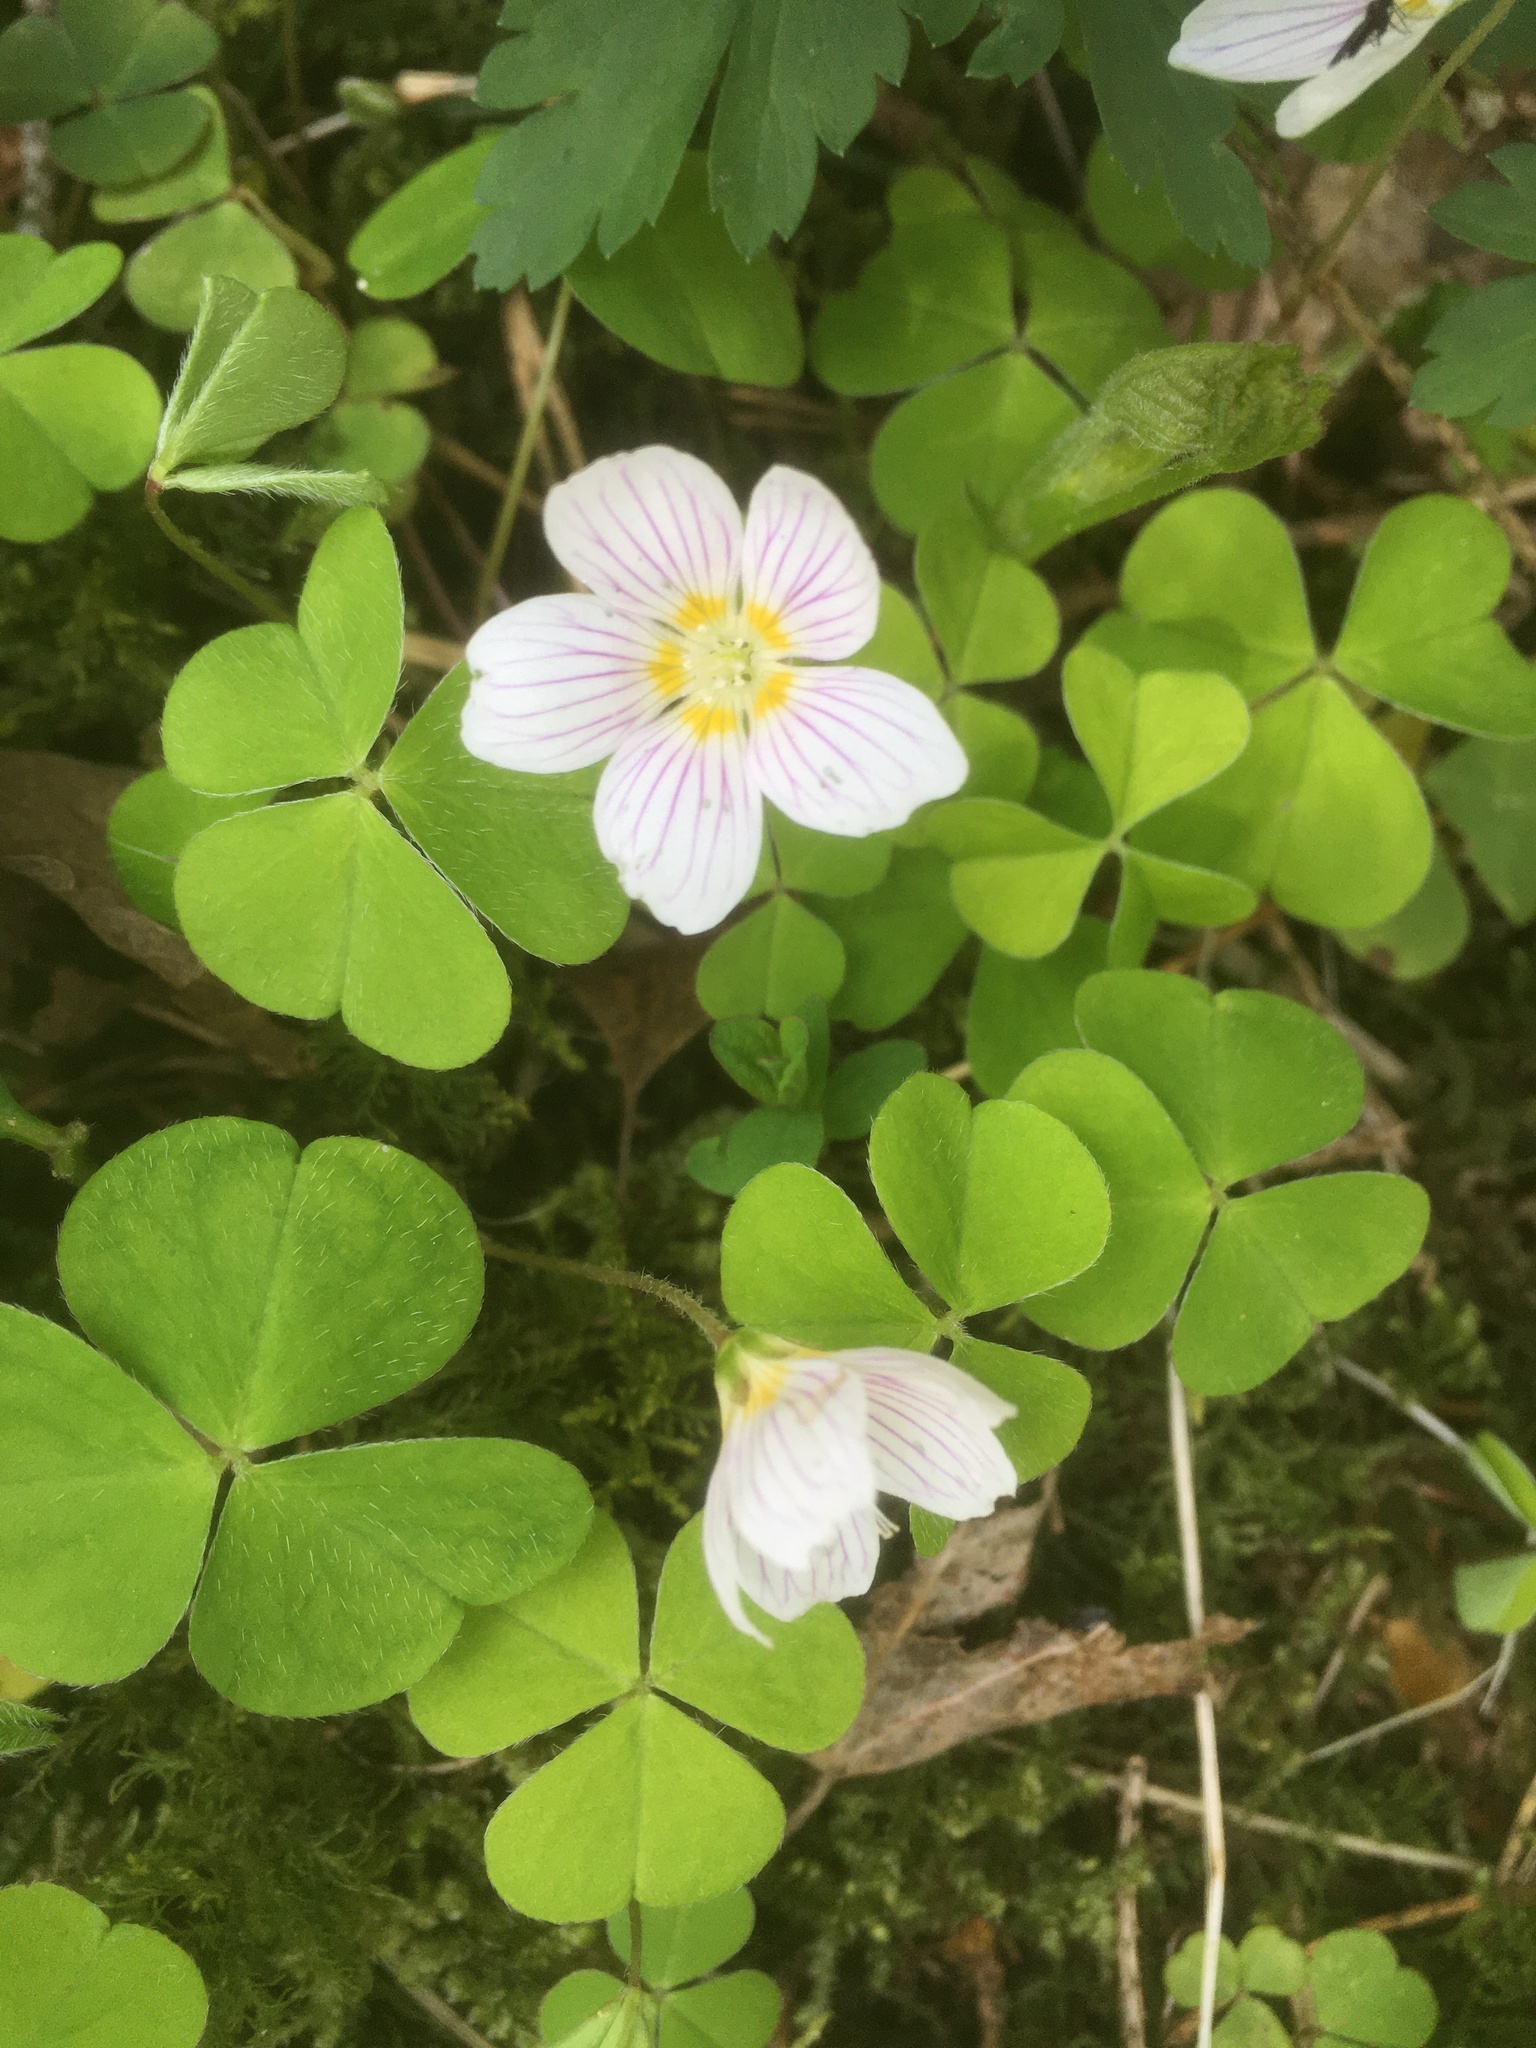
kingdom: Plantae
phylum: Tracheophyta
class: Magnoliopsida
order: Oxalidales
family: Oxalidaceae
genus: Oxalis
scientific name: Oxalis acetosella
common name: Wood-sorrel
